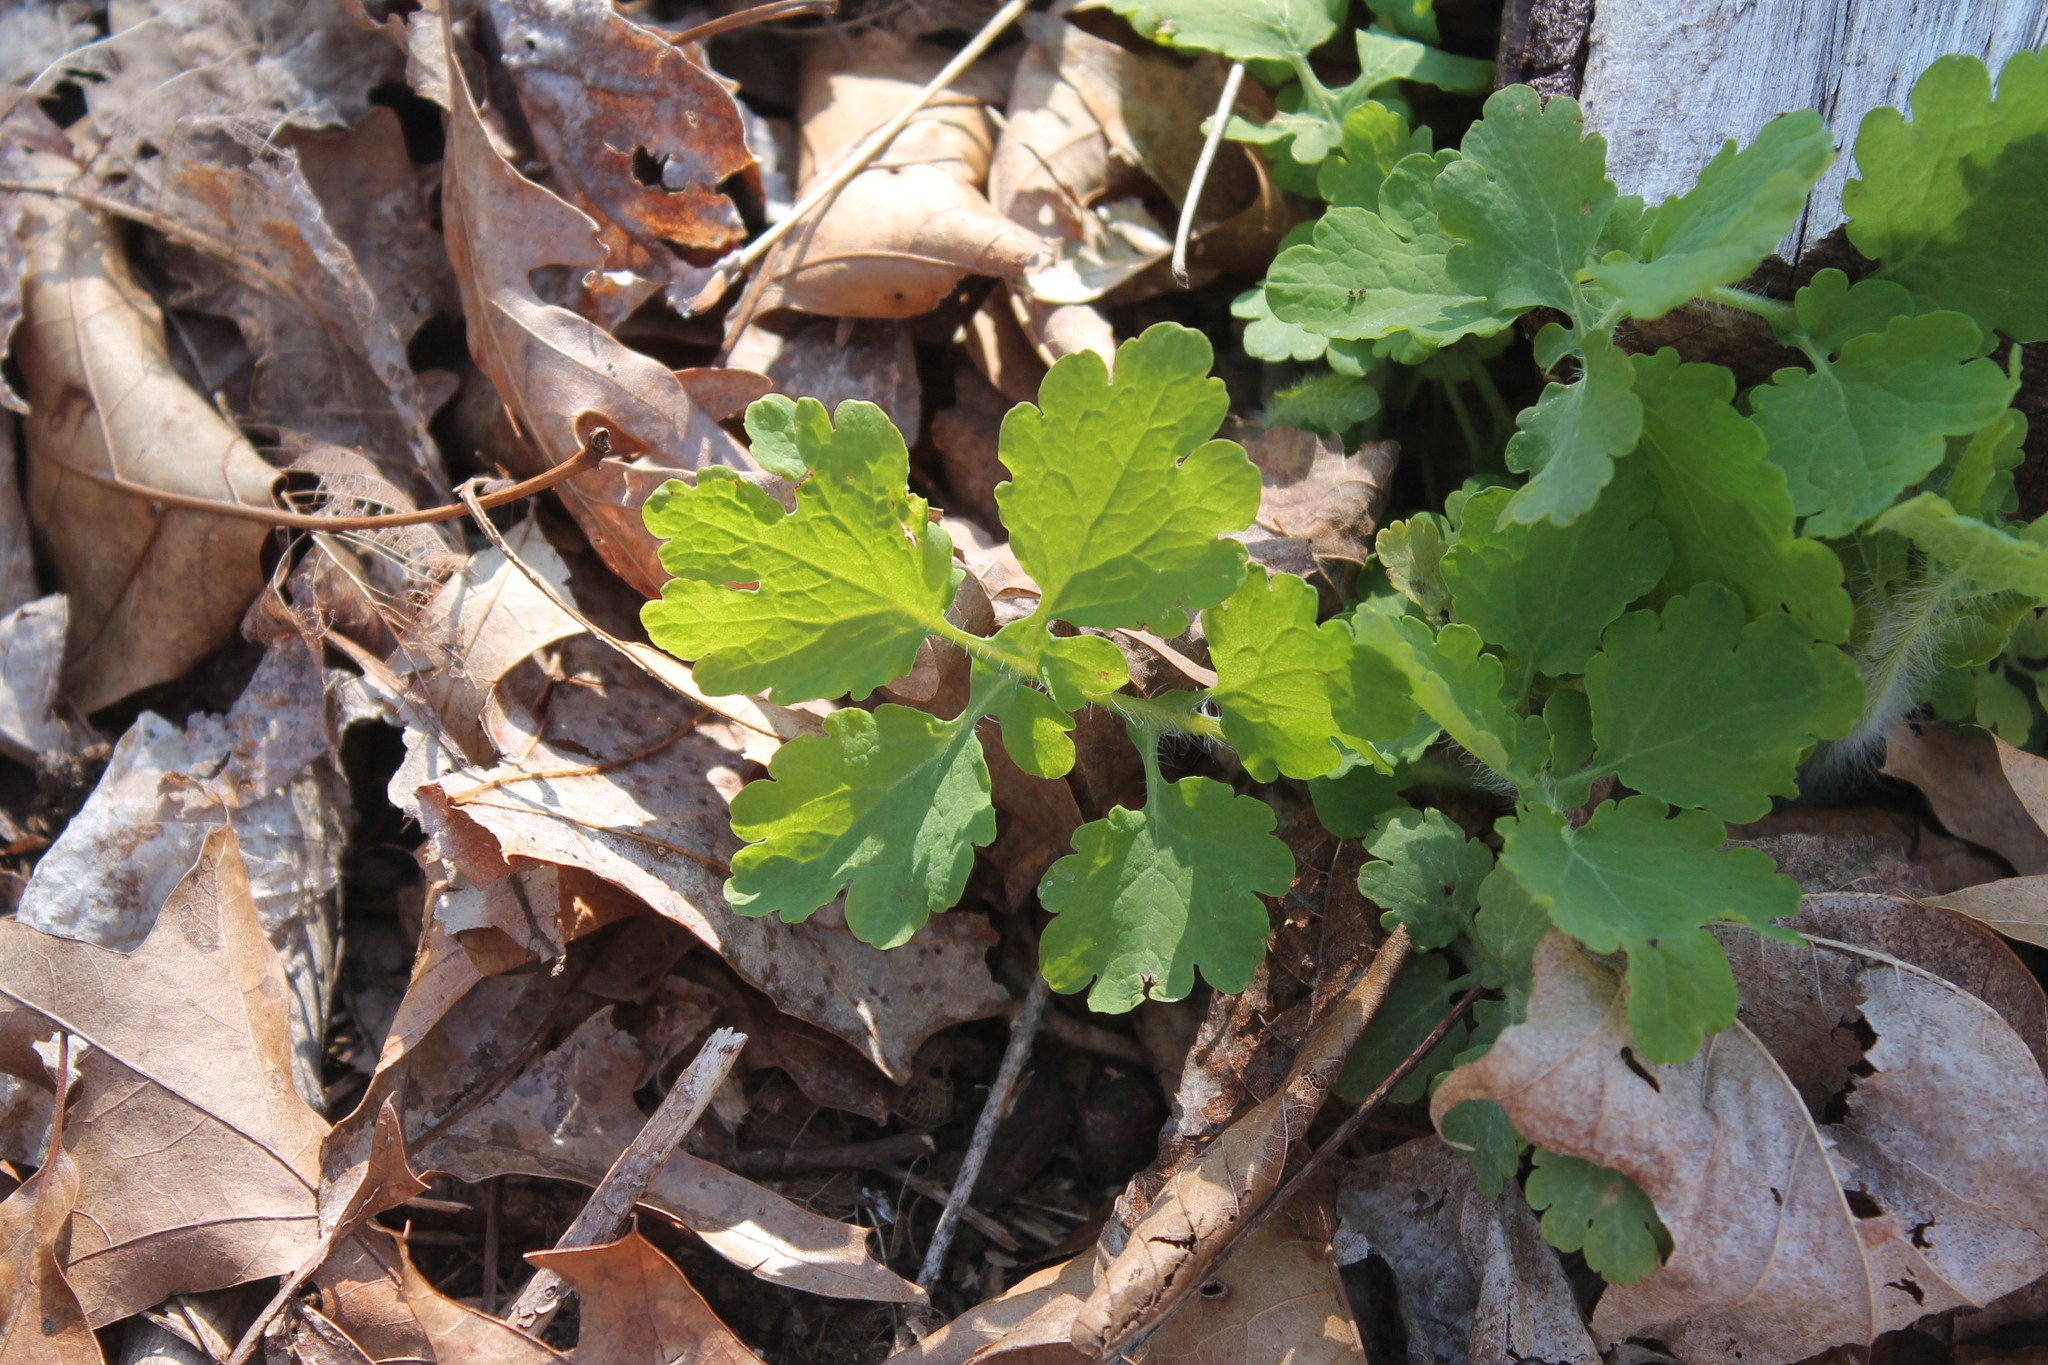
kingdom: Plantae
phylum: Tracheophyta
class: Magnoliopsida
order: Ranunculales
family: Papaveraceae
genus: Chelidonium
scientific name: Chelidonium majus
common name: Greater celandine
